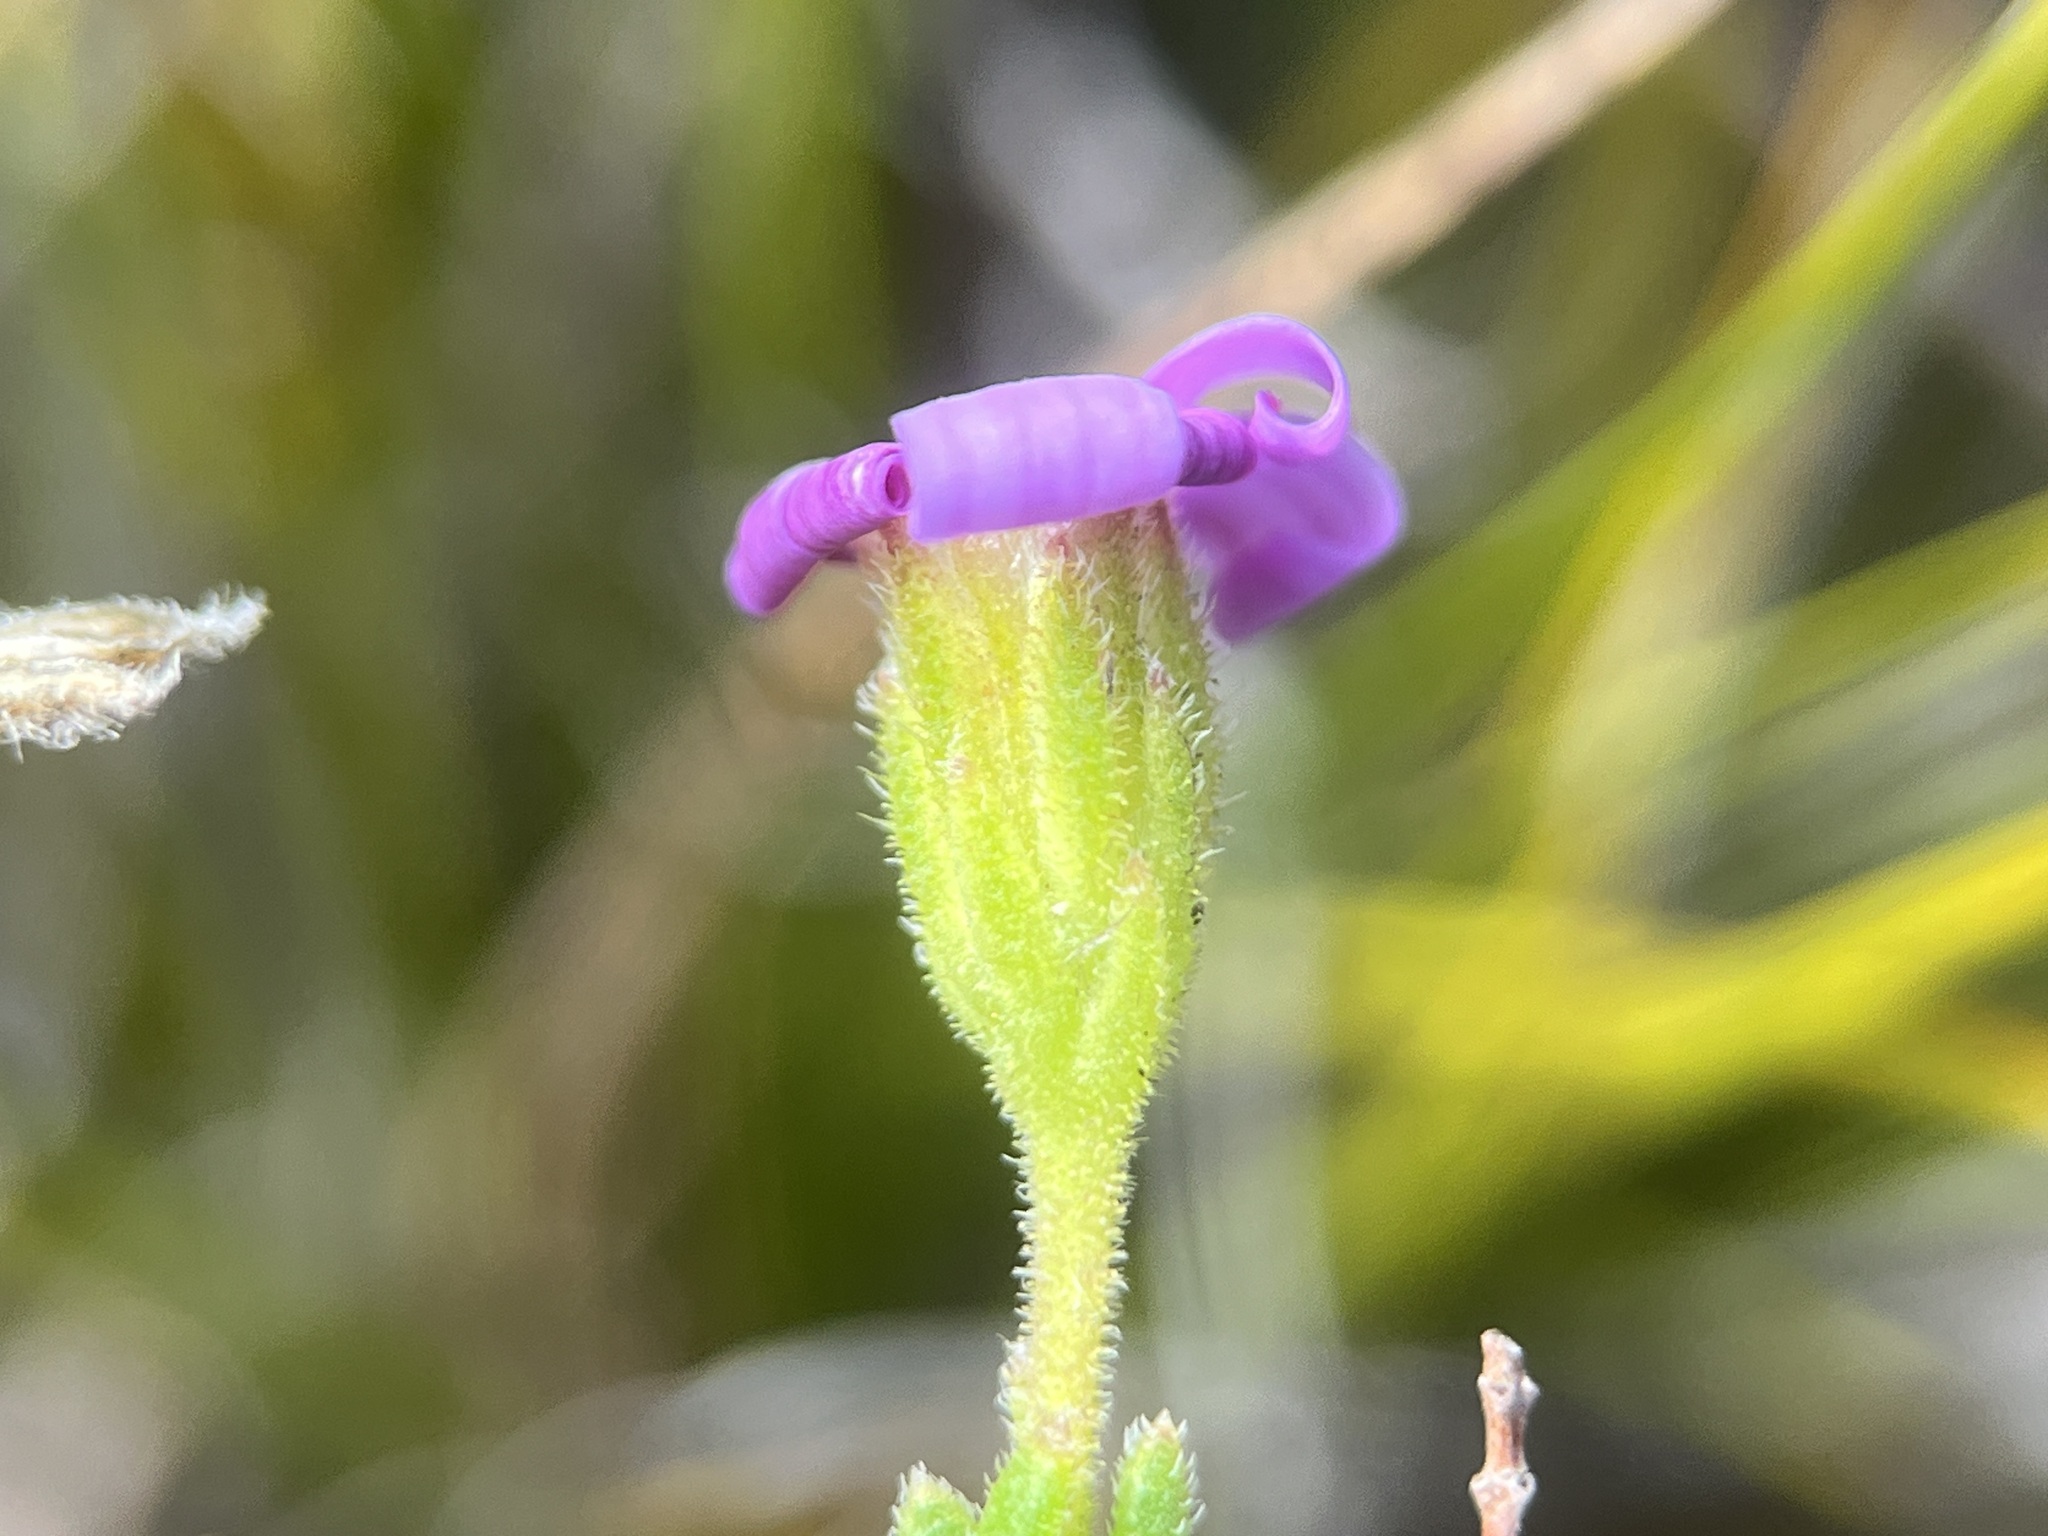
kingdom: Plantae
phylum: Tracheophyta
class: Magnoliopsida
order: Asterales
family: Asteraceae
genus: Zyrphelis
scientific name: Zyrphelis spathulata
